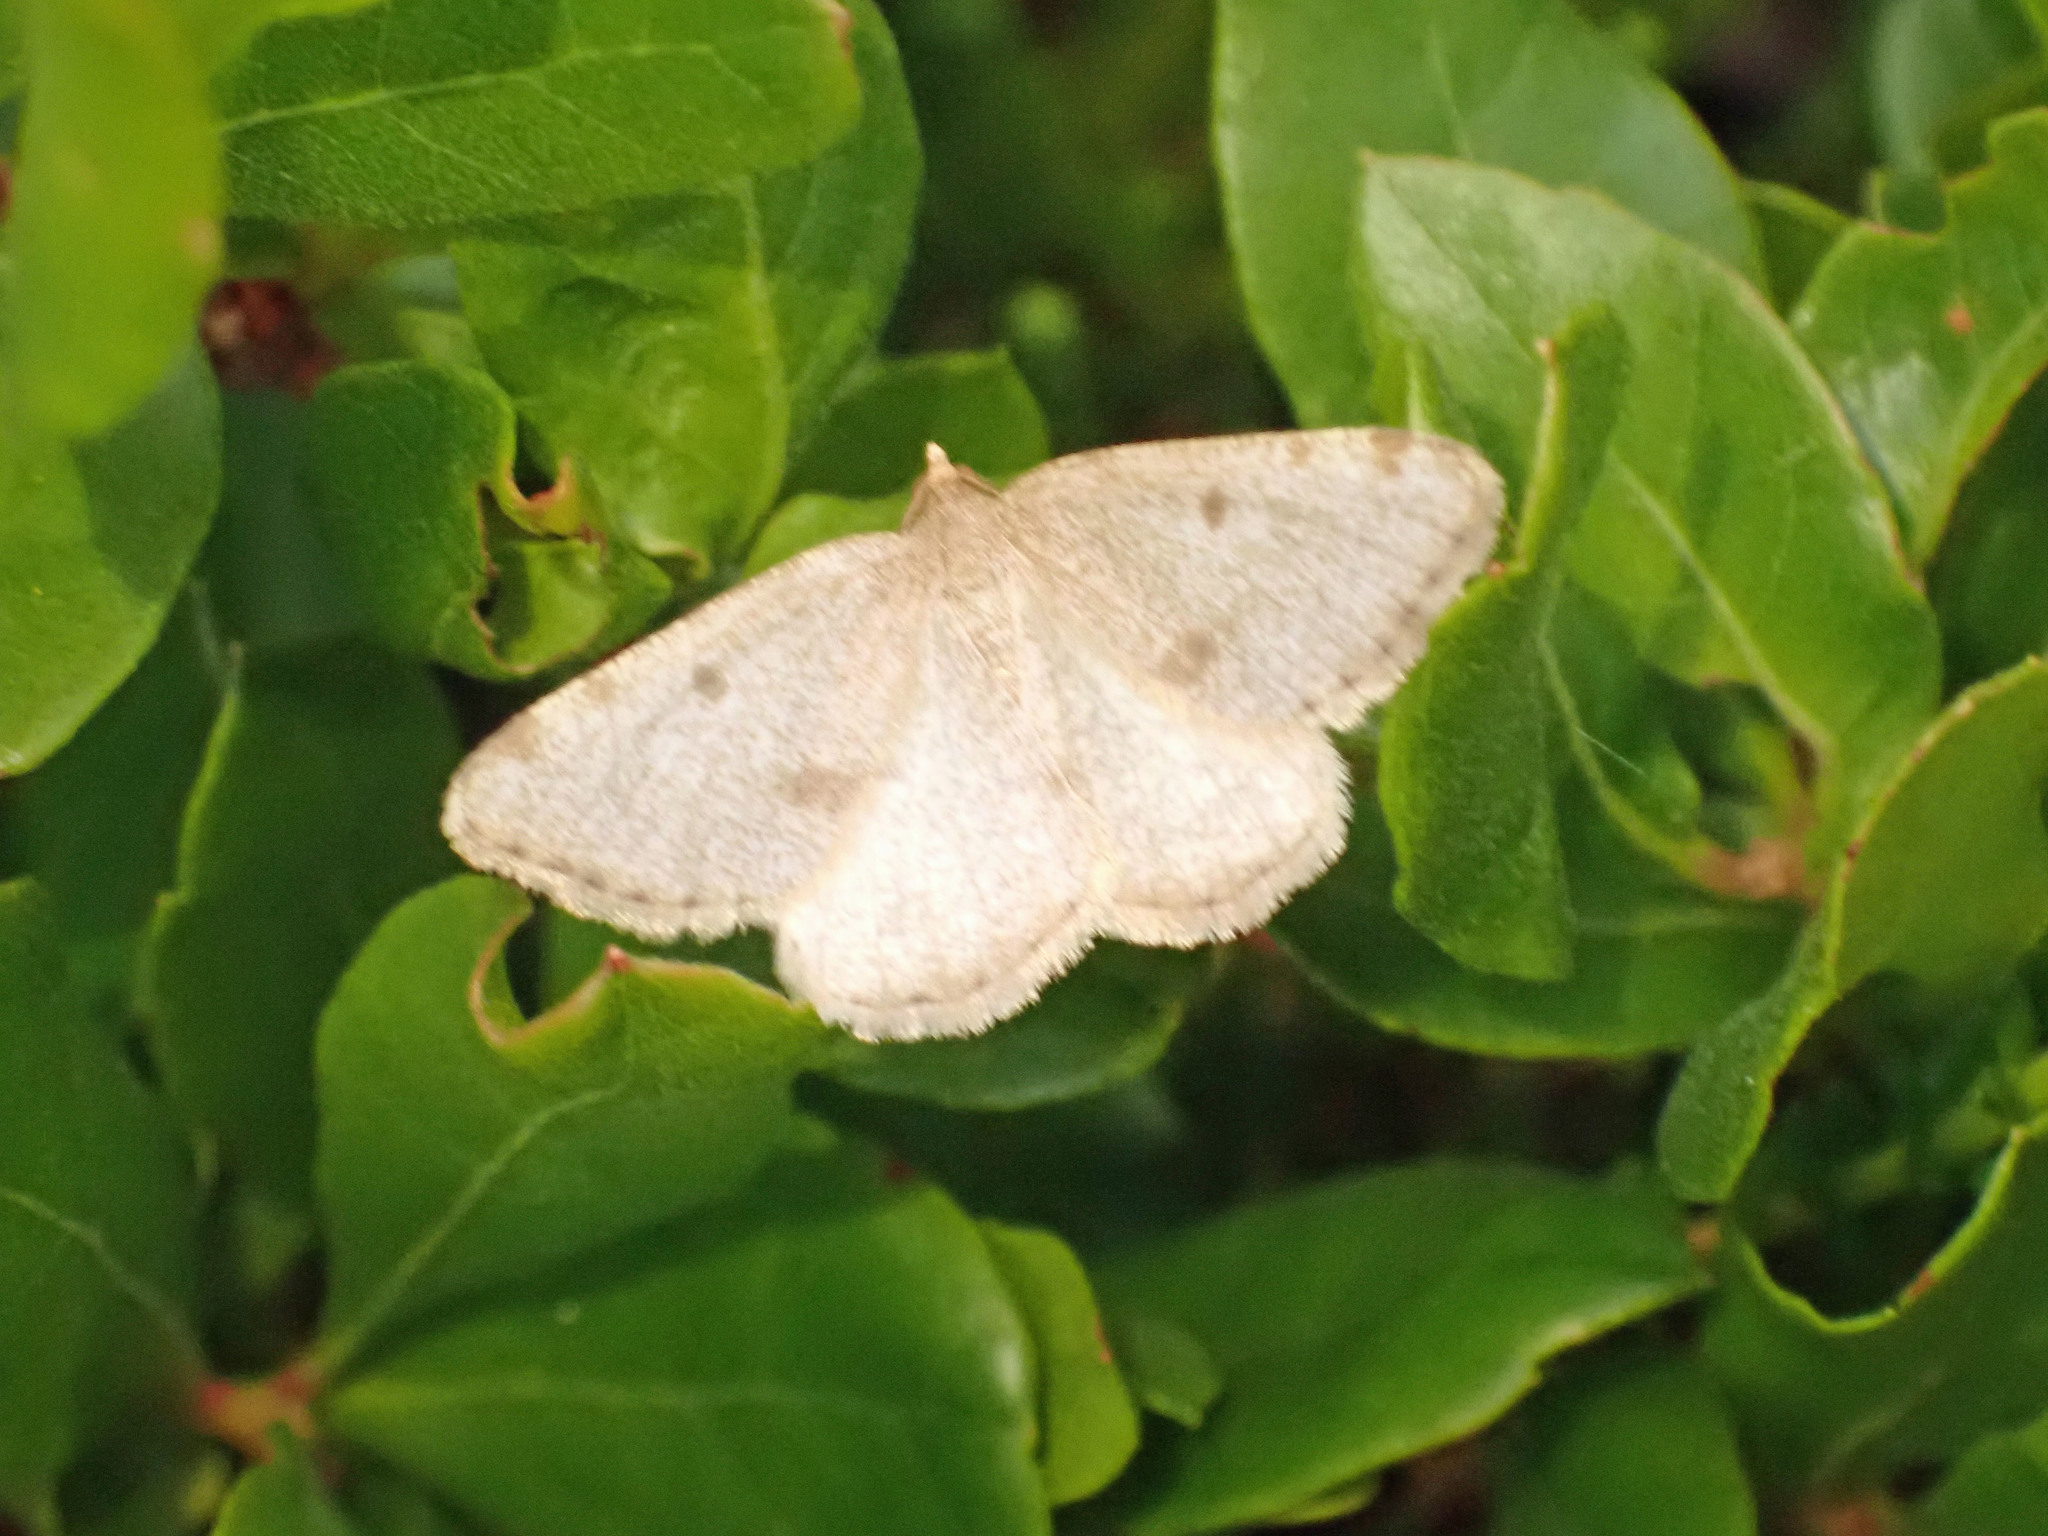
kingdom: Animalia
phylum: Arthropoda
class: Insecta
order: Lepidoptera
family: Geometridae
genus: Macaria
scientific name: Macaria sulphurea
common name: Sulphur angle
